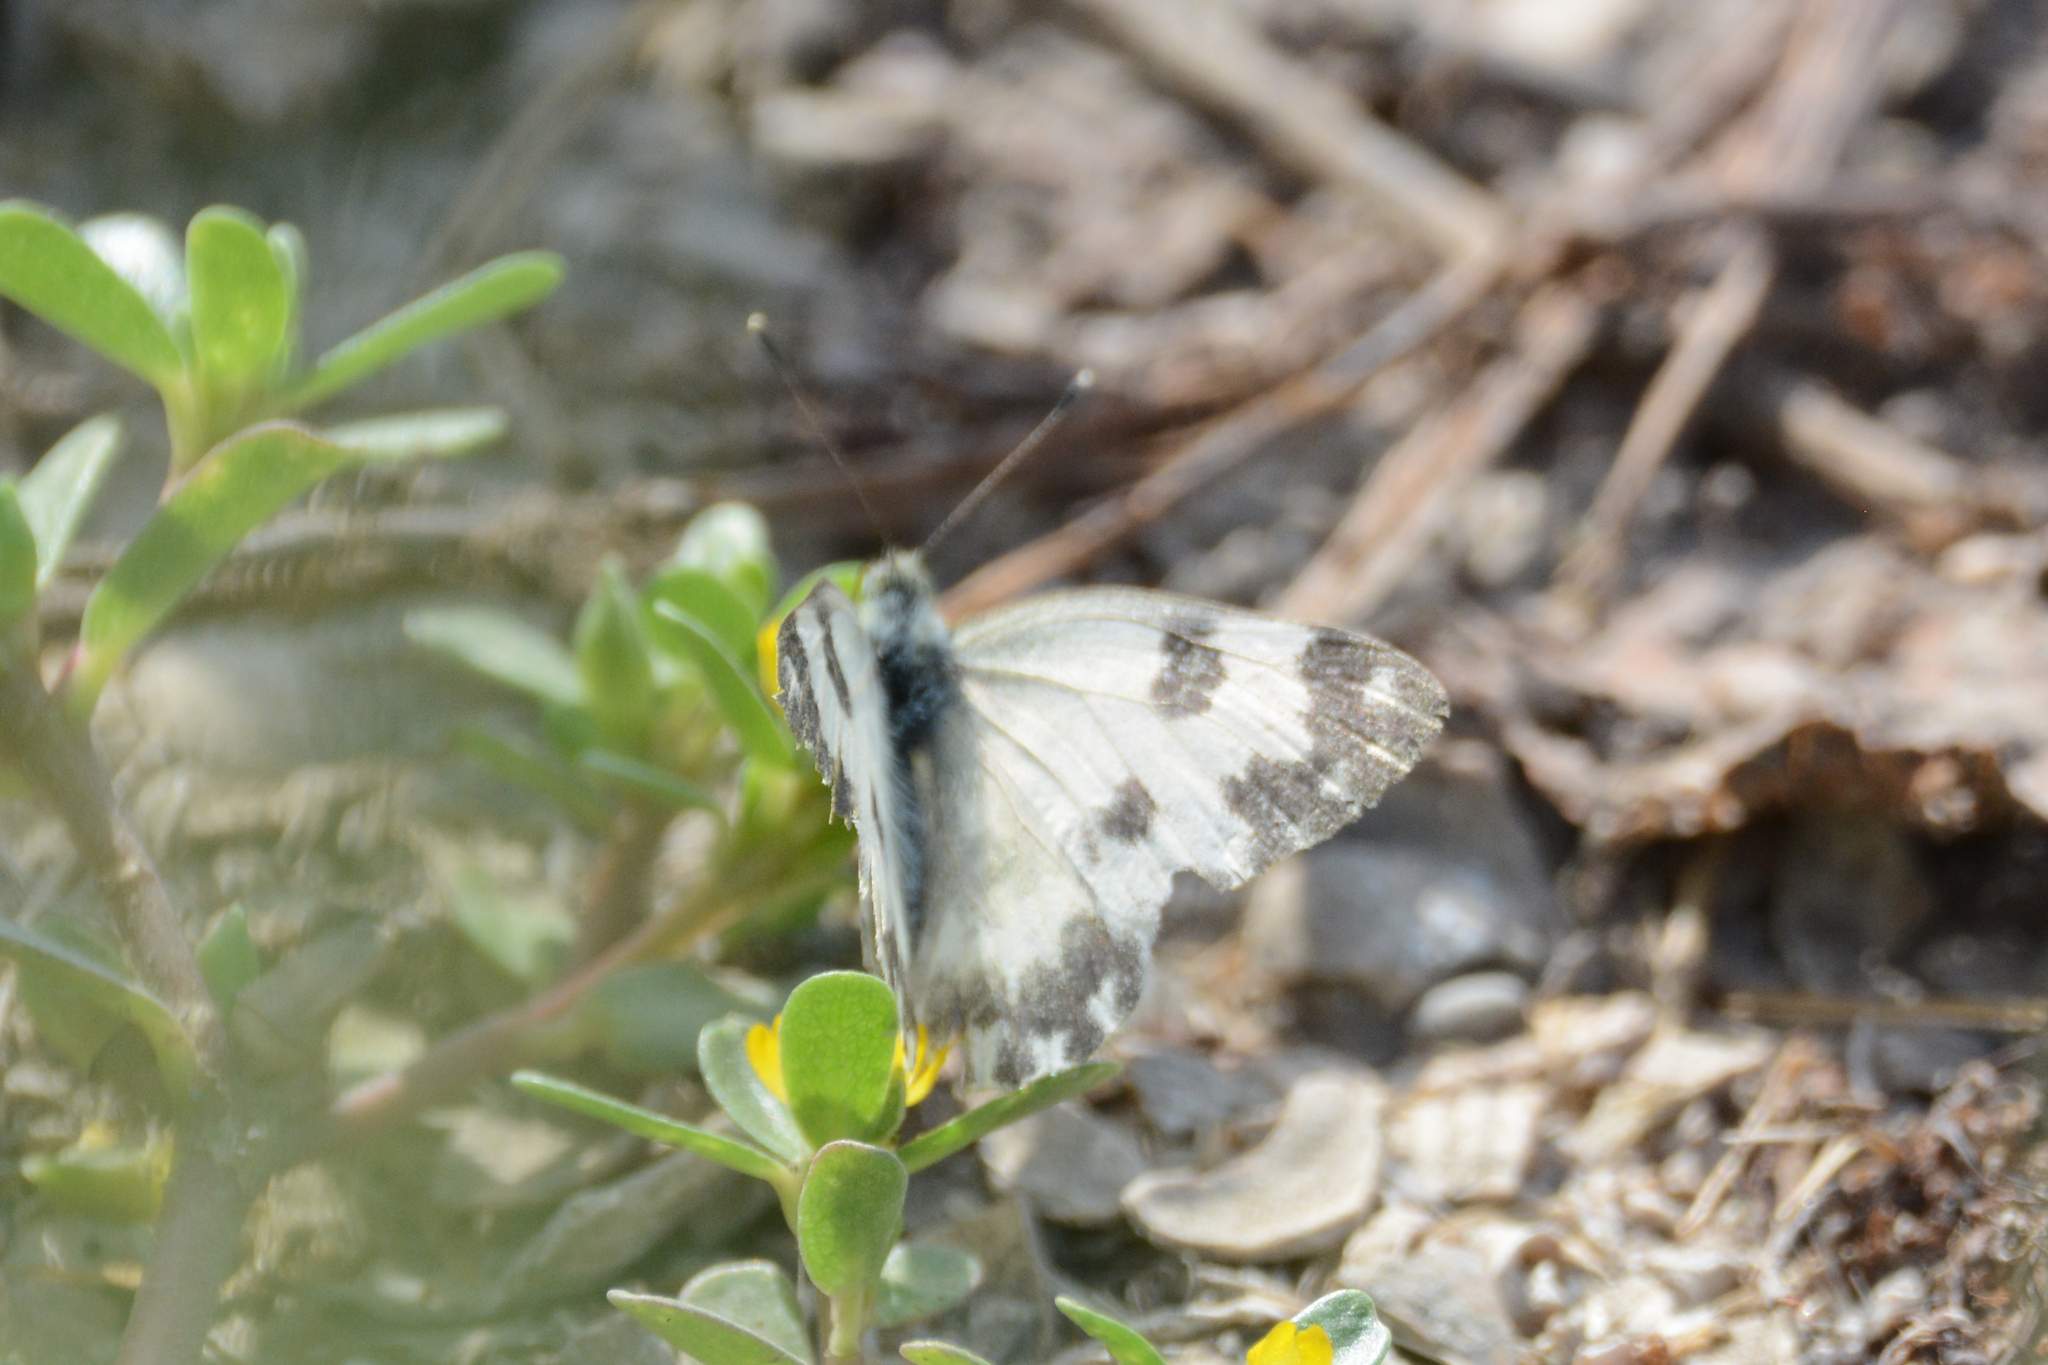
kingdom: Animalia
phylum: Arthropoda
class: Insecta
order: Lepidoptera
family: Pieridae
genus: Pontia
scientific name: Pontia edusa
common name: Eastern bath white
